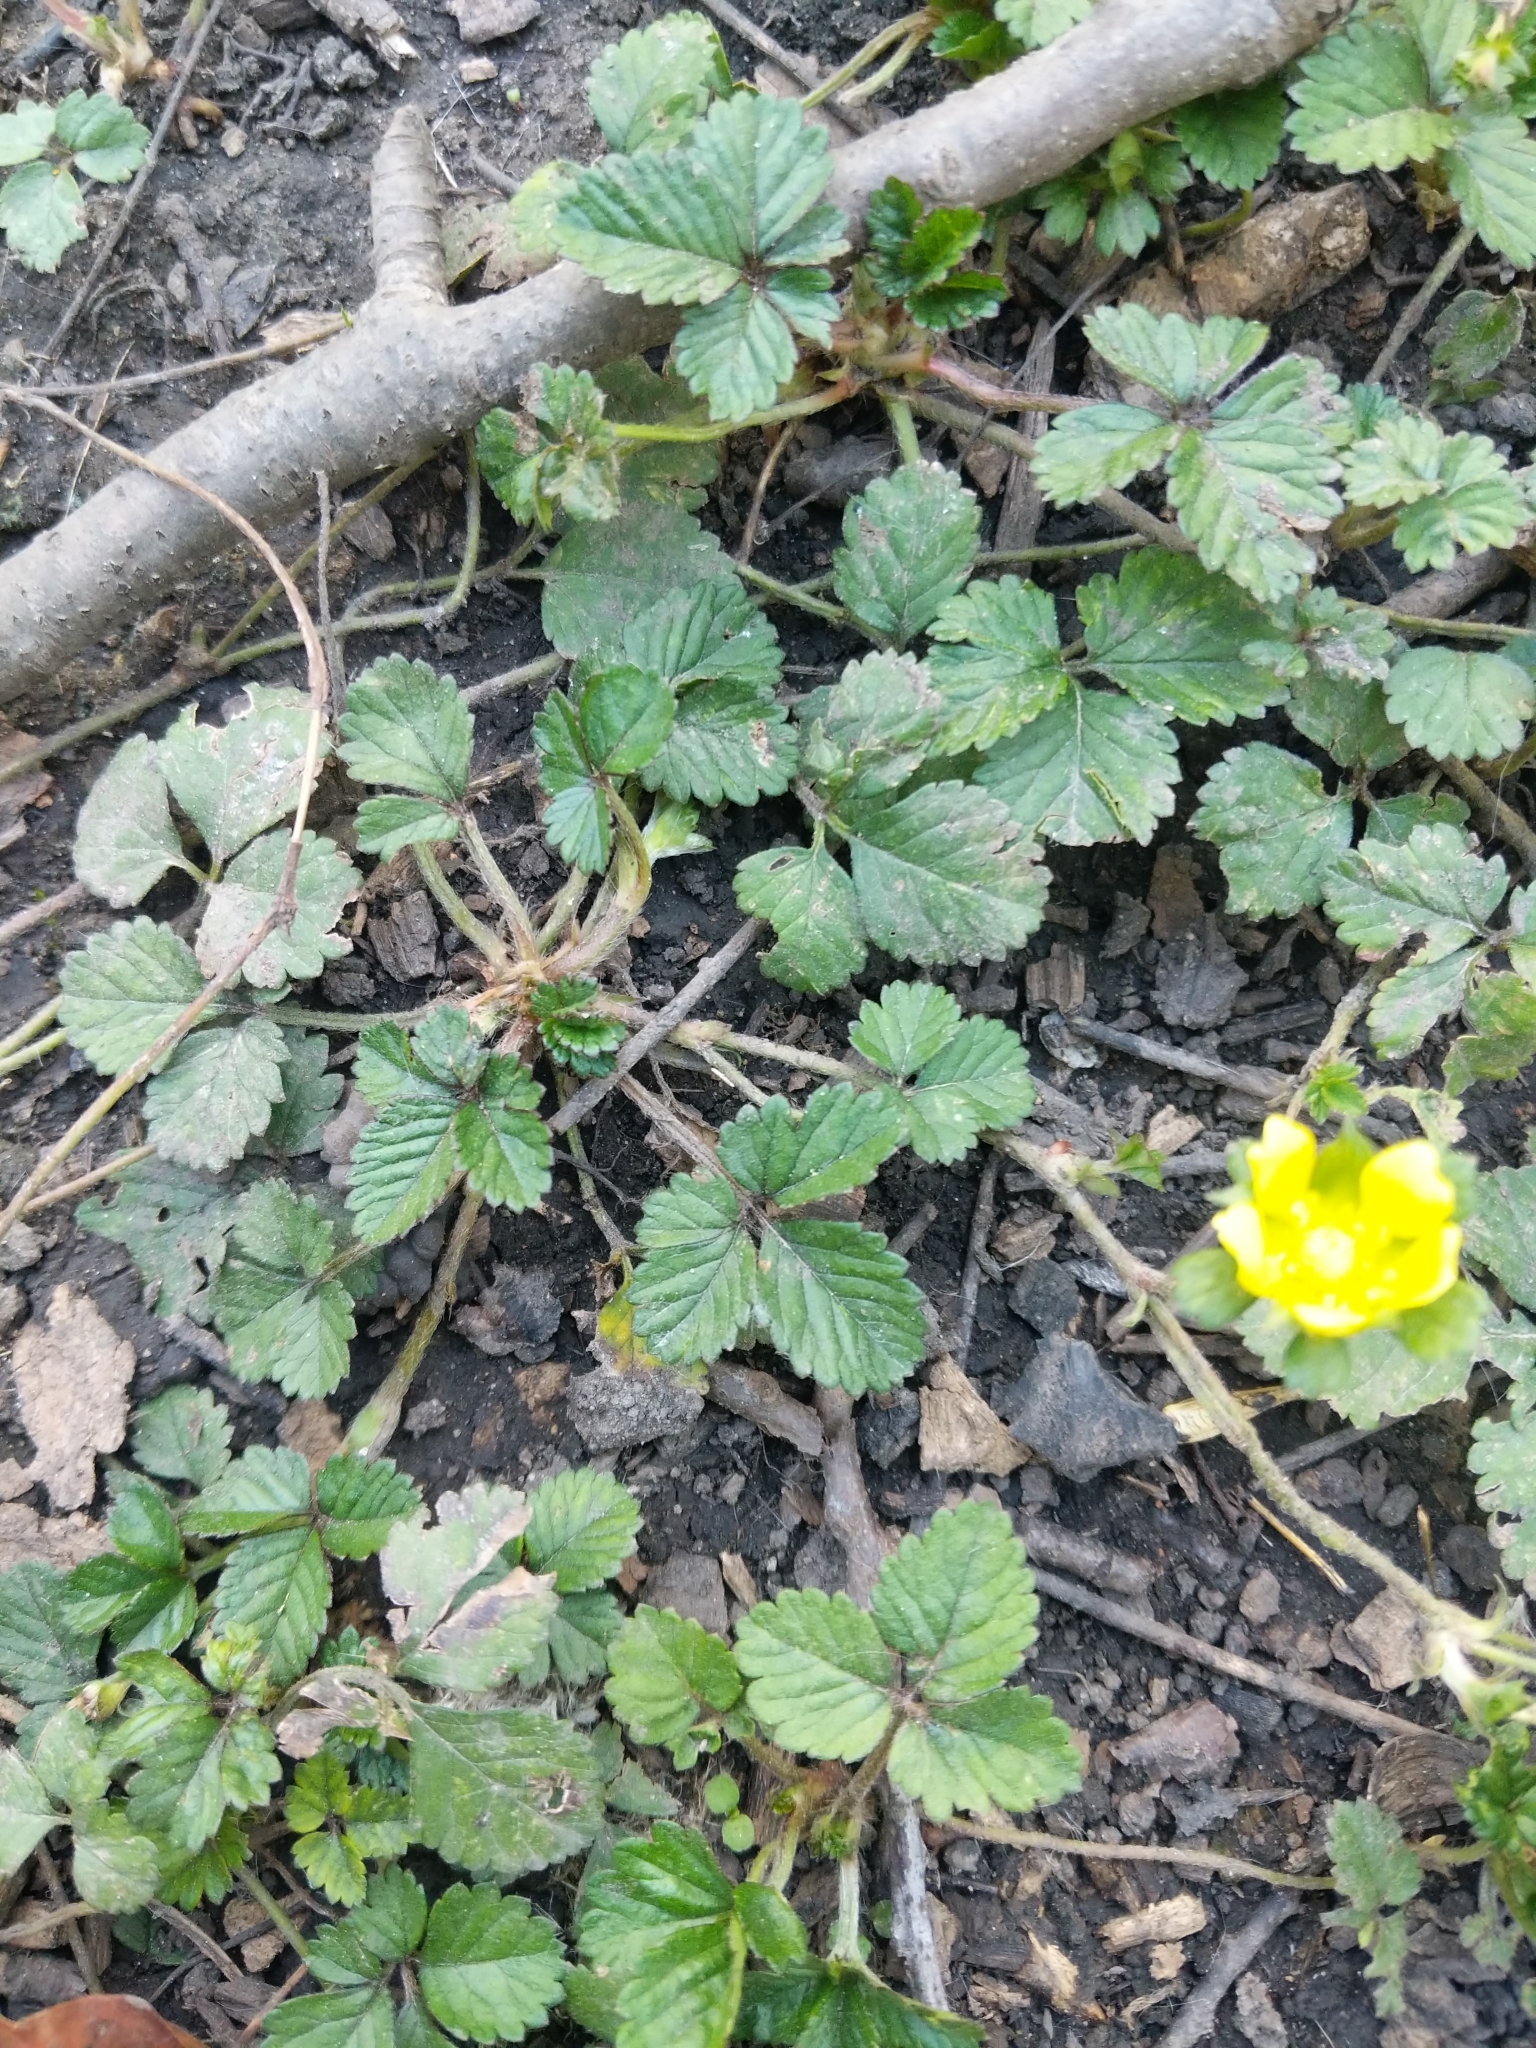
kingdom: Plantae
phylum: Tracheophyta
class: Magnoliopsida
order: Rosales
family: Rosaceae
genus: Potentilla
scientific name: Potentilla indica
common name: Yellow-flowered strawberry
